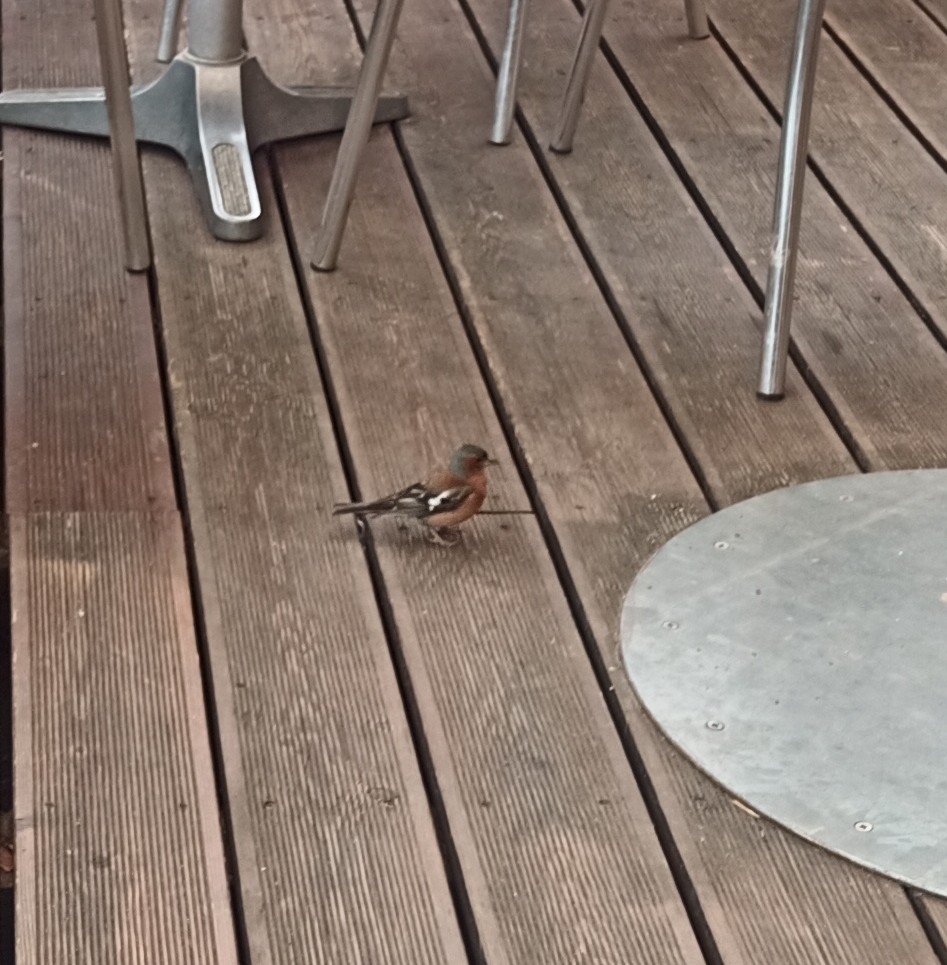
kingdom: Animalia
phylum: Chordata
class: Aves
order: Passeriformes
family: Fringillidae
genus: Fringilla
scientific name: Fringilla coelebs
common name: Common chaffinch
